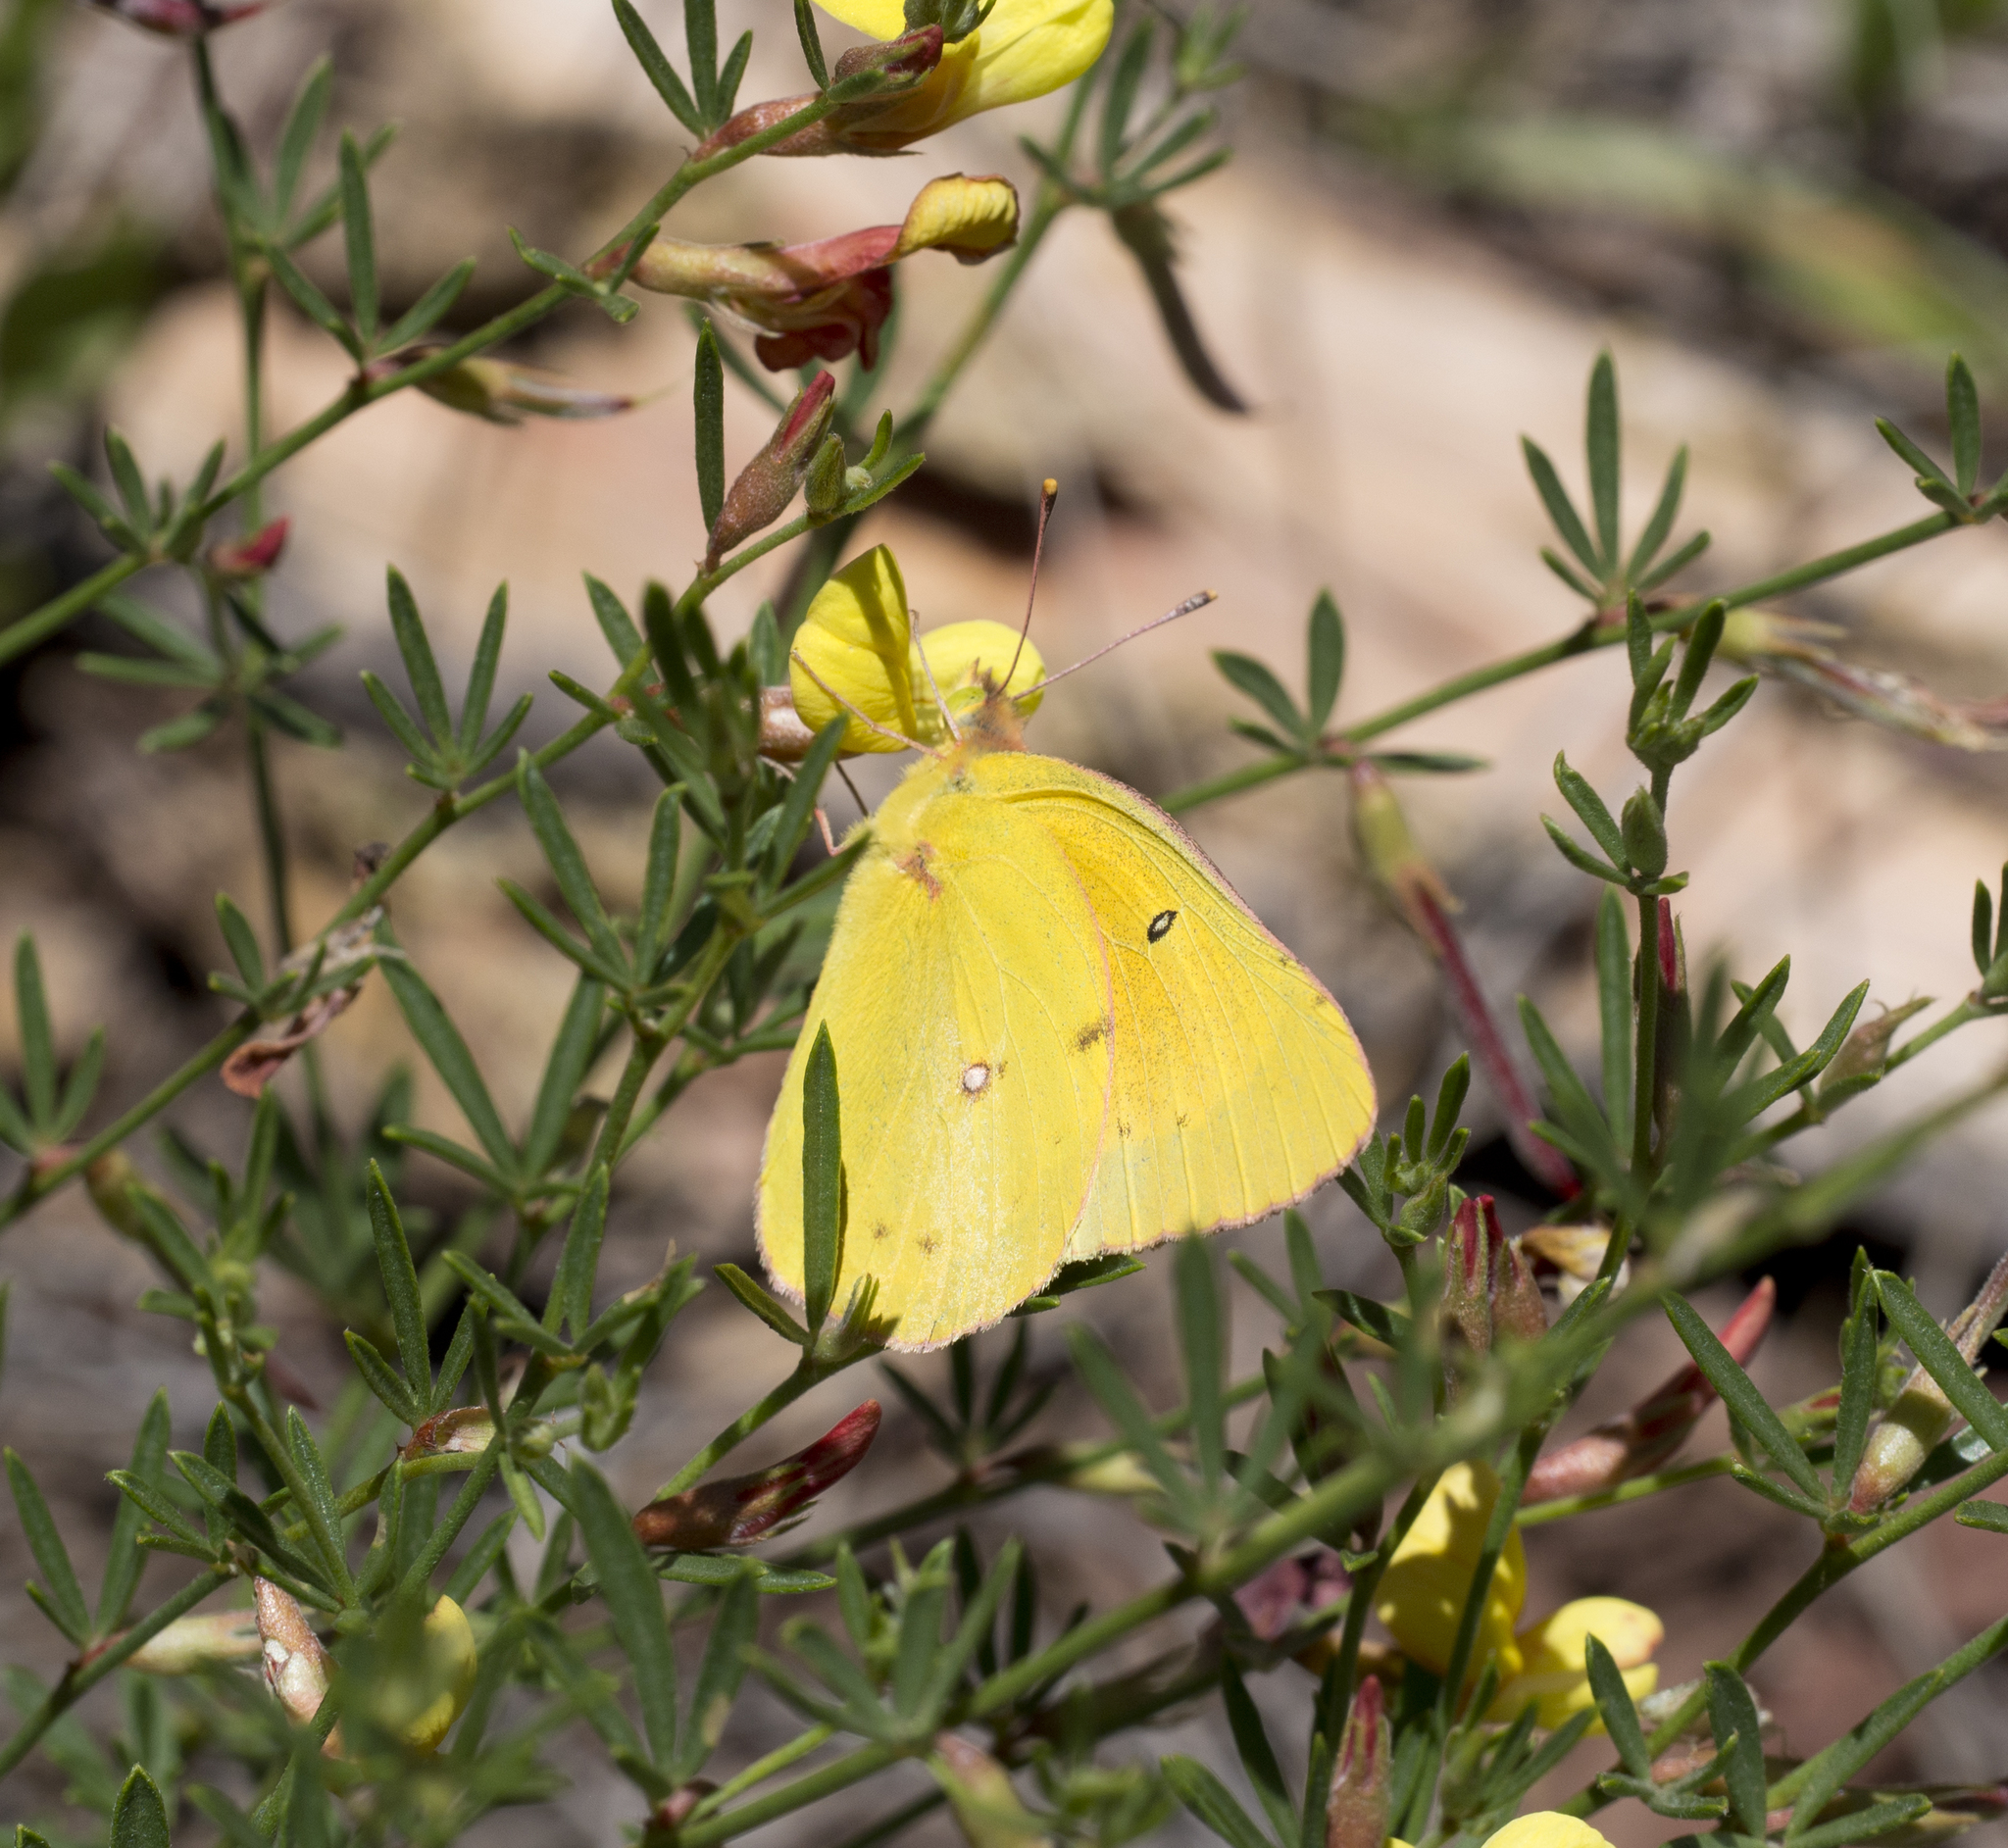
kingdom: Animalia
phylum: Arthropoda
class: Insecta
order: Lepidoptera
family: Pieridae
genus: Colias
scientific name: Colias eurytheme
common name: Alfalfa butterfly
